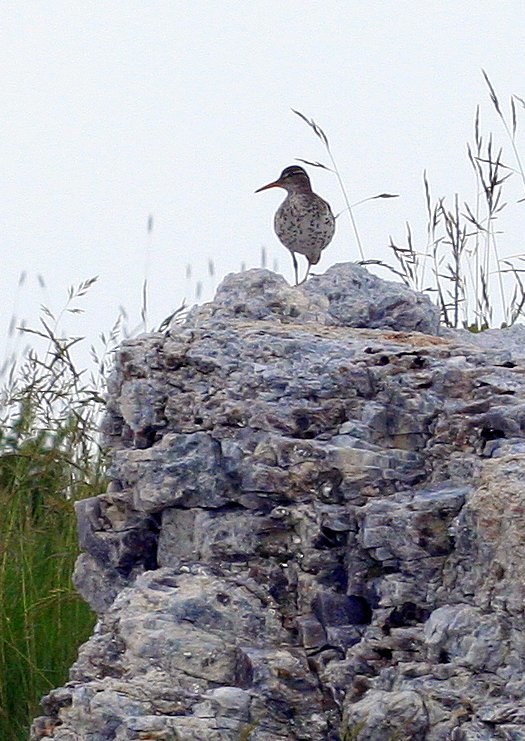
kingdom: Animalia
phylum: Chordata
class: Aves
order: Charadriiformes
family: Scolopacidae
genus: Actitis
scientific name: Actitis macularius
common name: Spotted sandpiper
